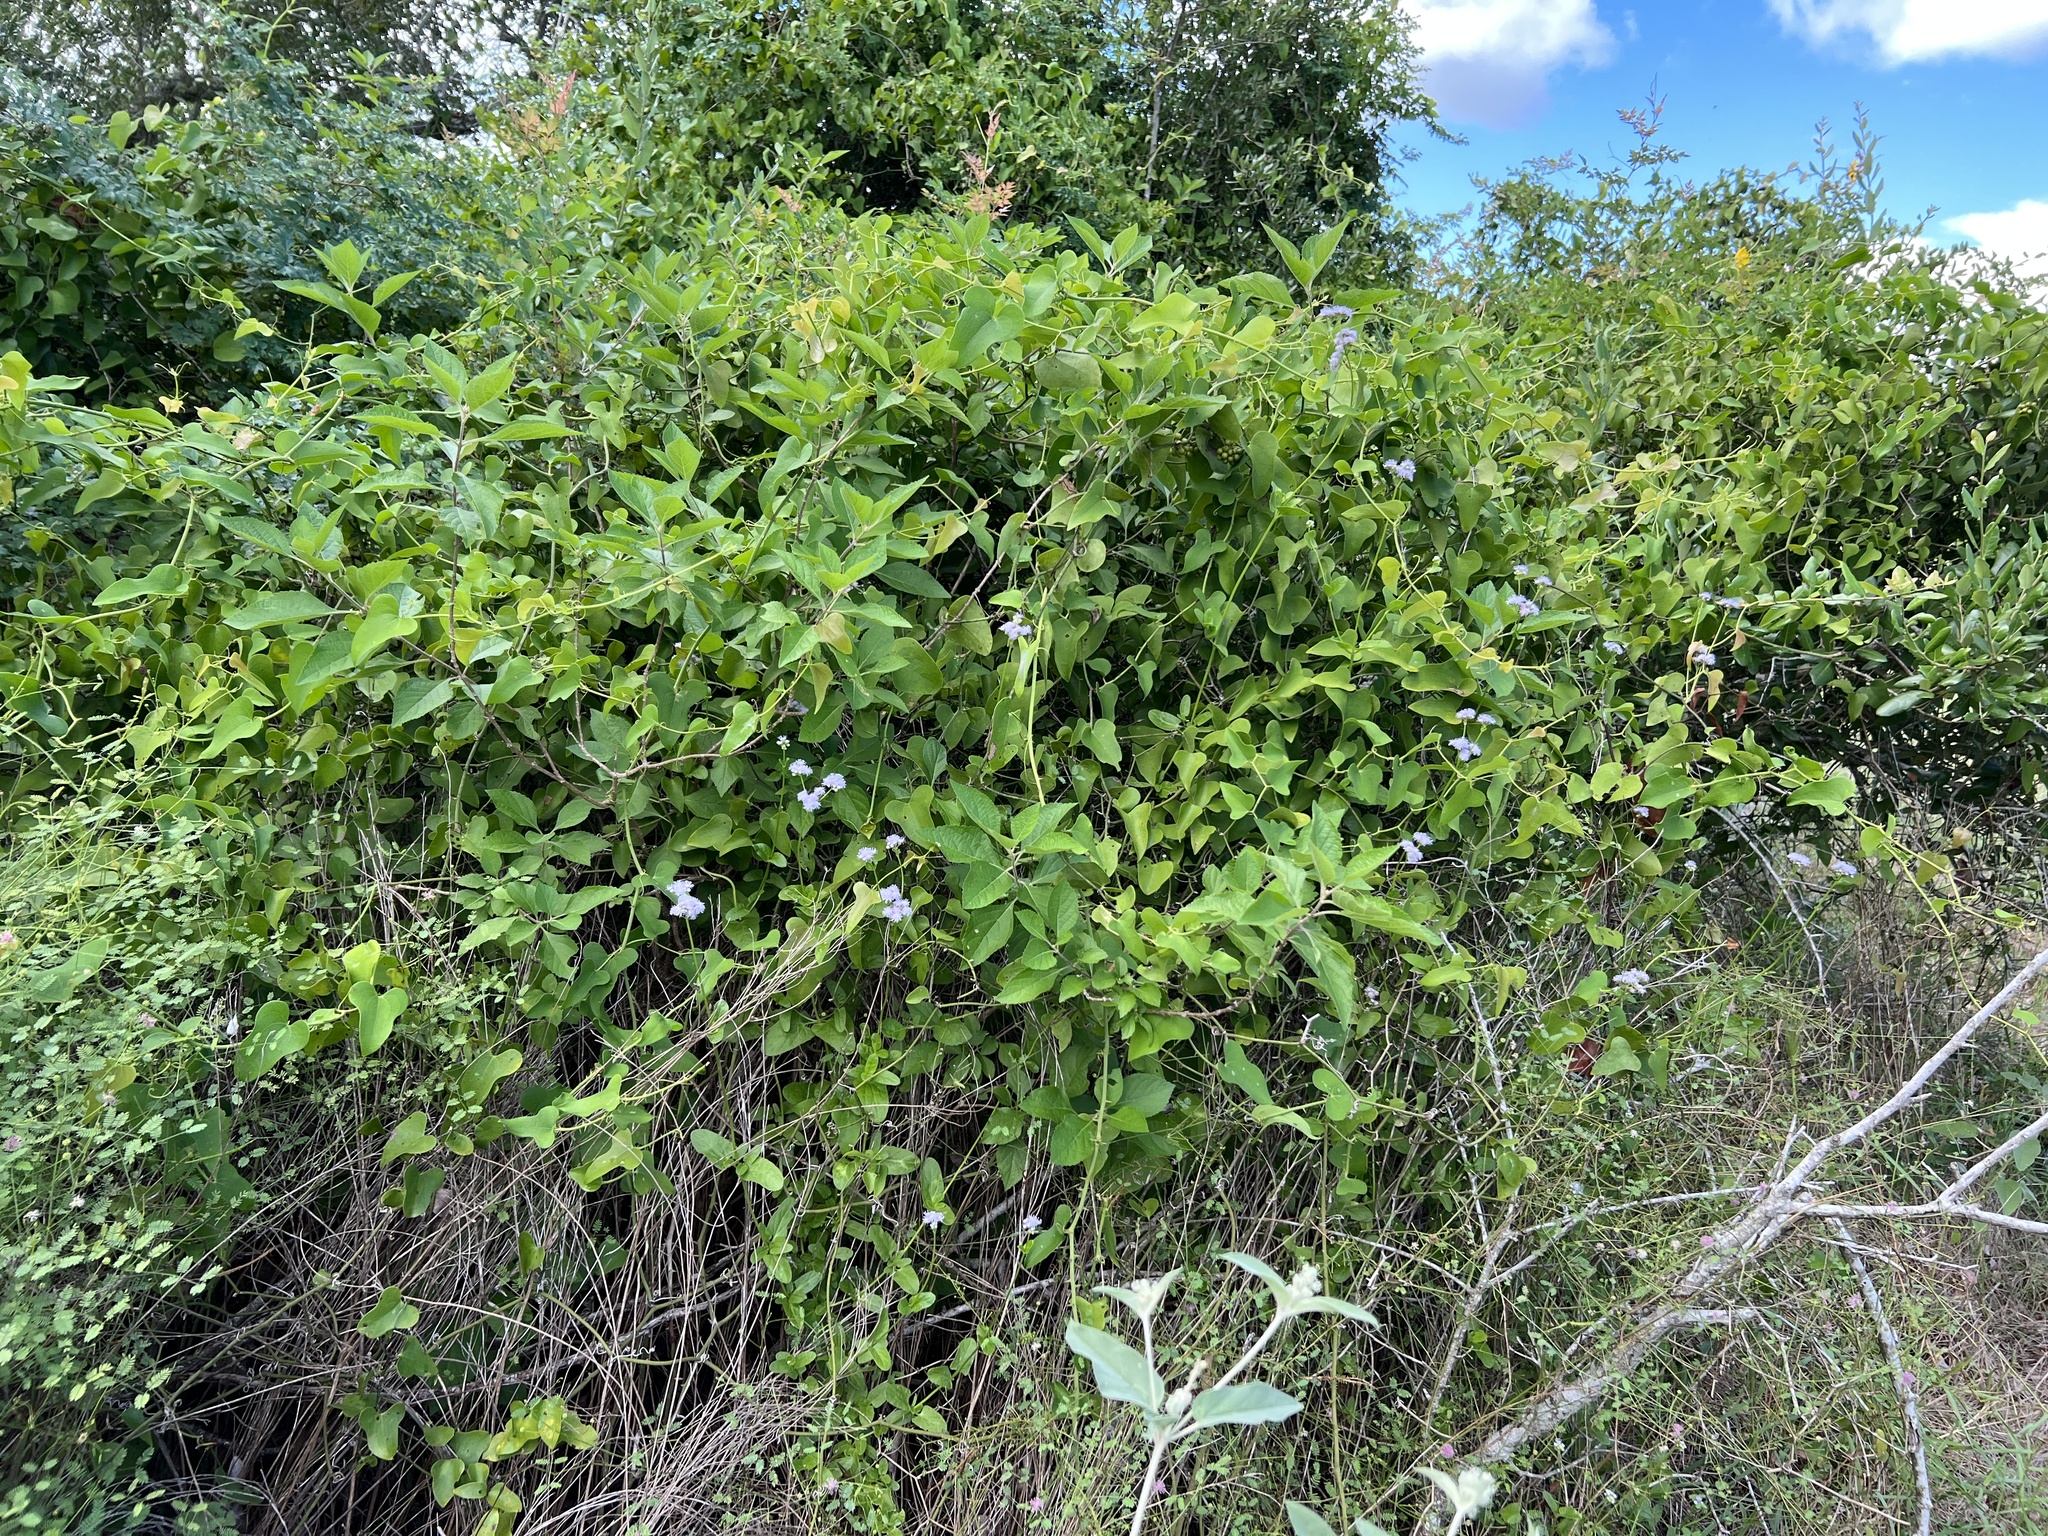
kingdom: Plantae
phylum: Tracheophyta
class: Magnoliopsida
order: Asterales
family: Asteraceae
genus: Conoclinium
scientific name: Conoclinium betonicifolium
